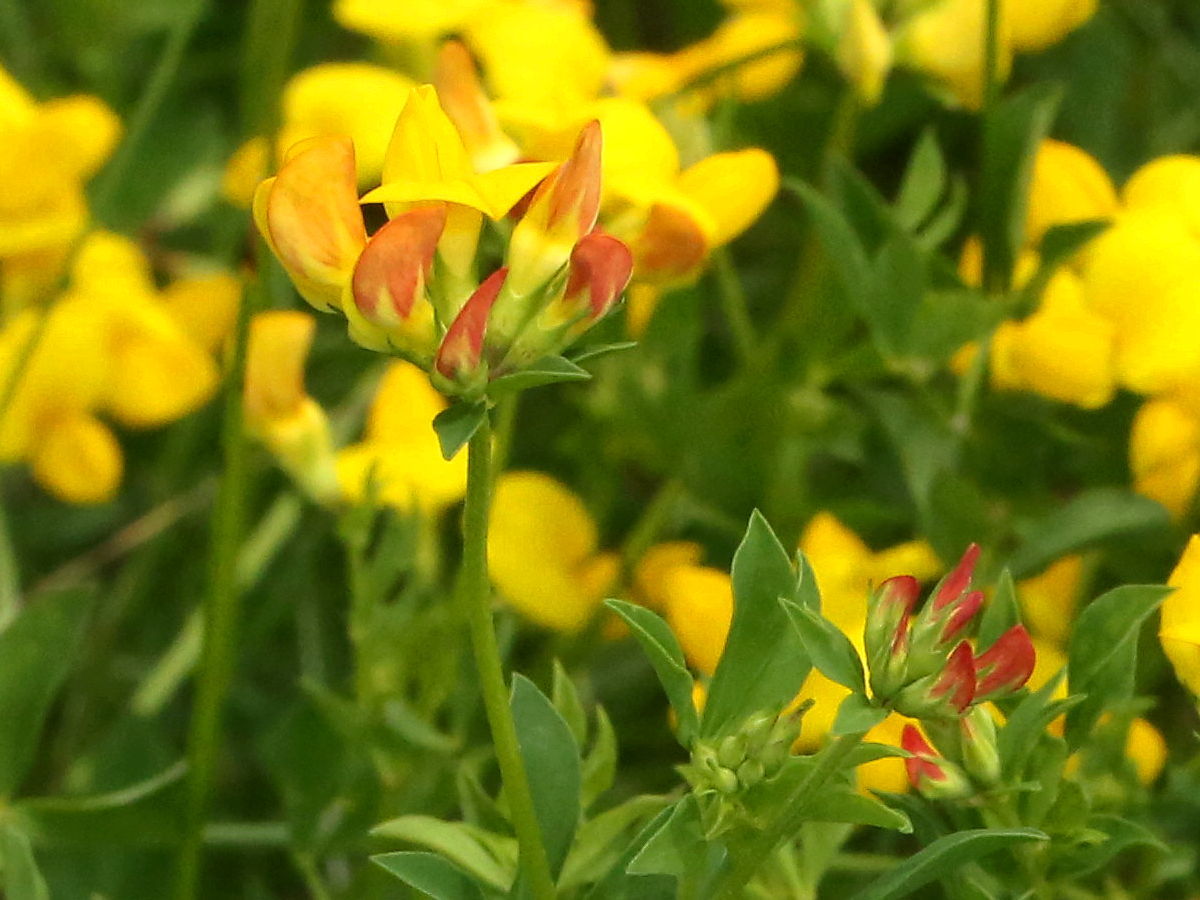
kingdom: Plantae
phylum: Tracheophyta
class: Magnoliopsida
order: Fabales
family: Fabaceae
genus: Lotus
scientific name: Lotus corniculatus
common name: Common bird's-foot-trefoil
